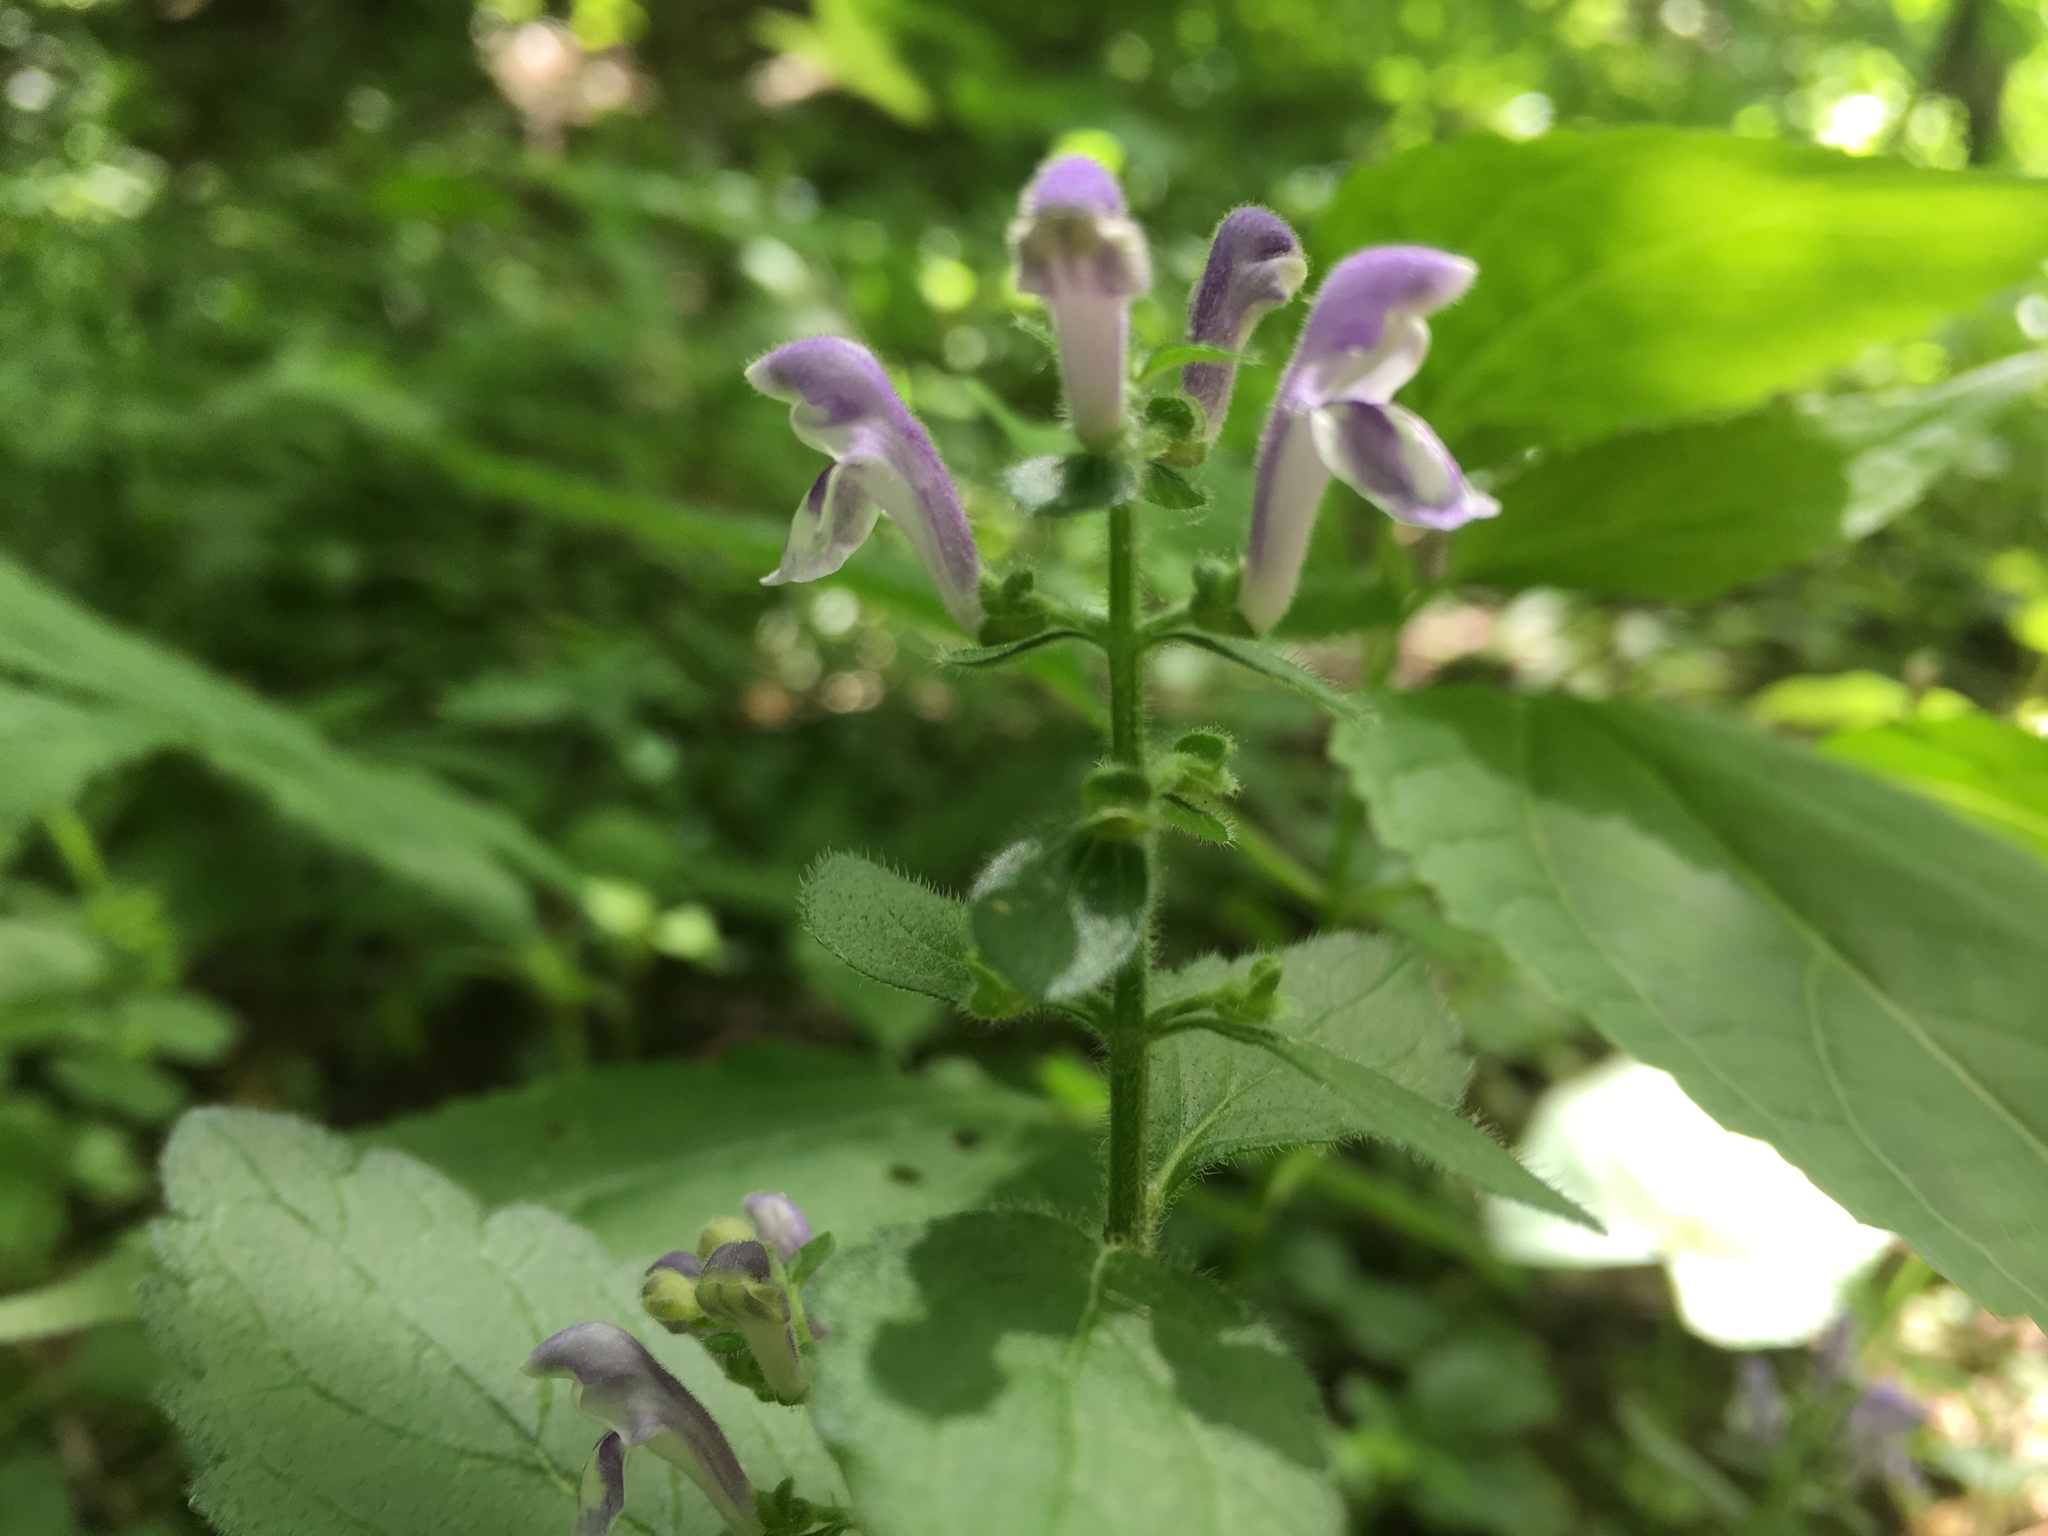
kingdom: Plantae
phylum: Tracheophyta
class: Magnoliopsida
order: Lamiales
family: Lamiaceae
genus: Scutellaria
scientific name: Scutellaria elliptica
